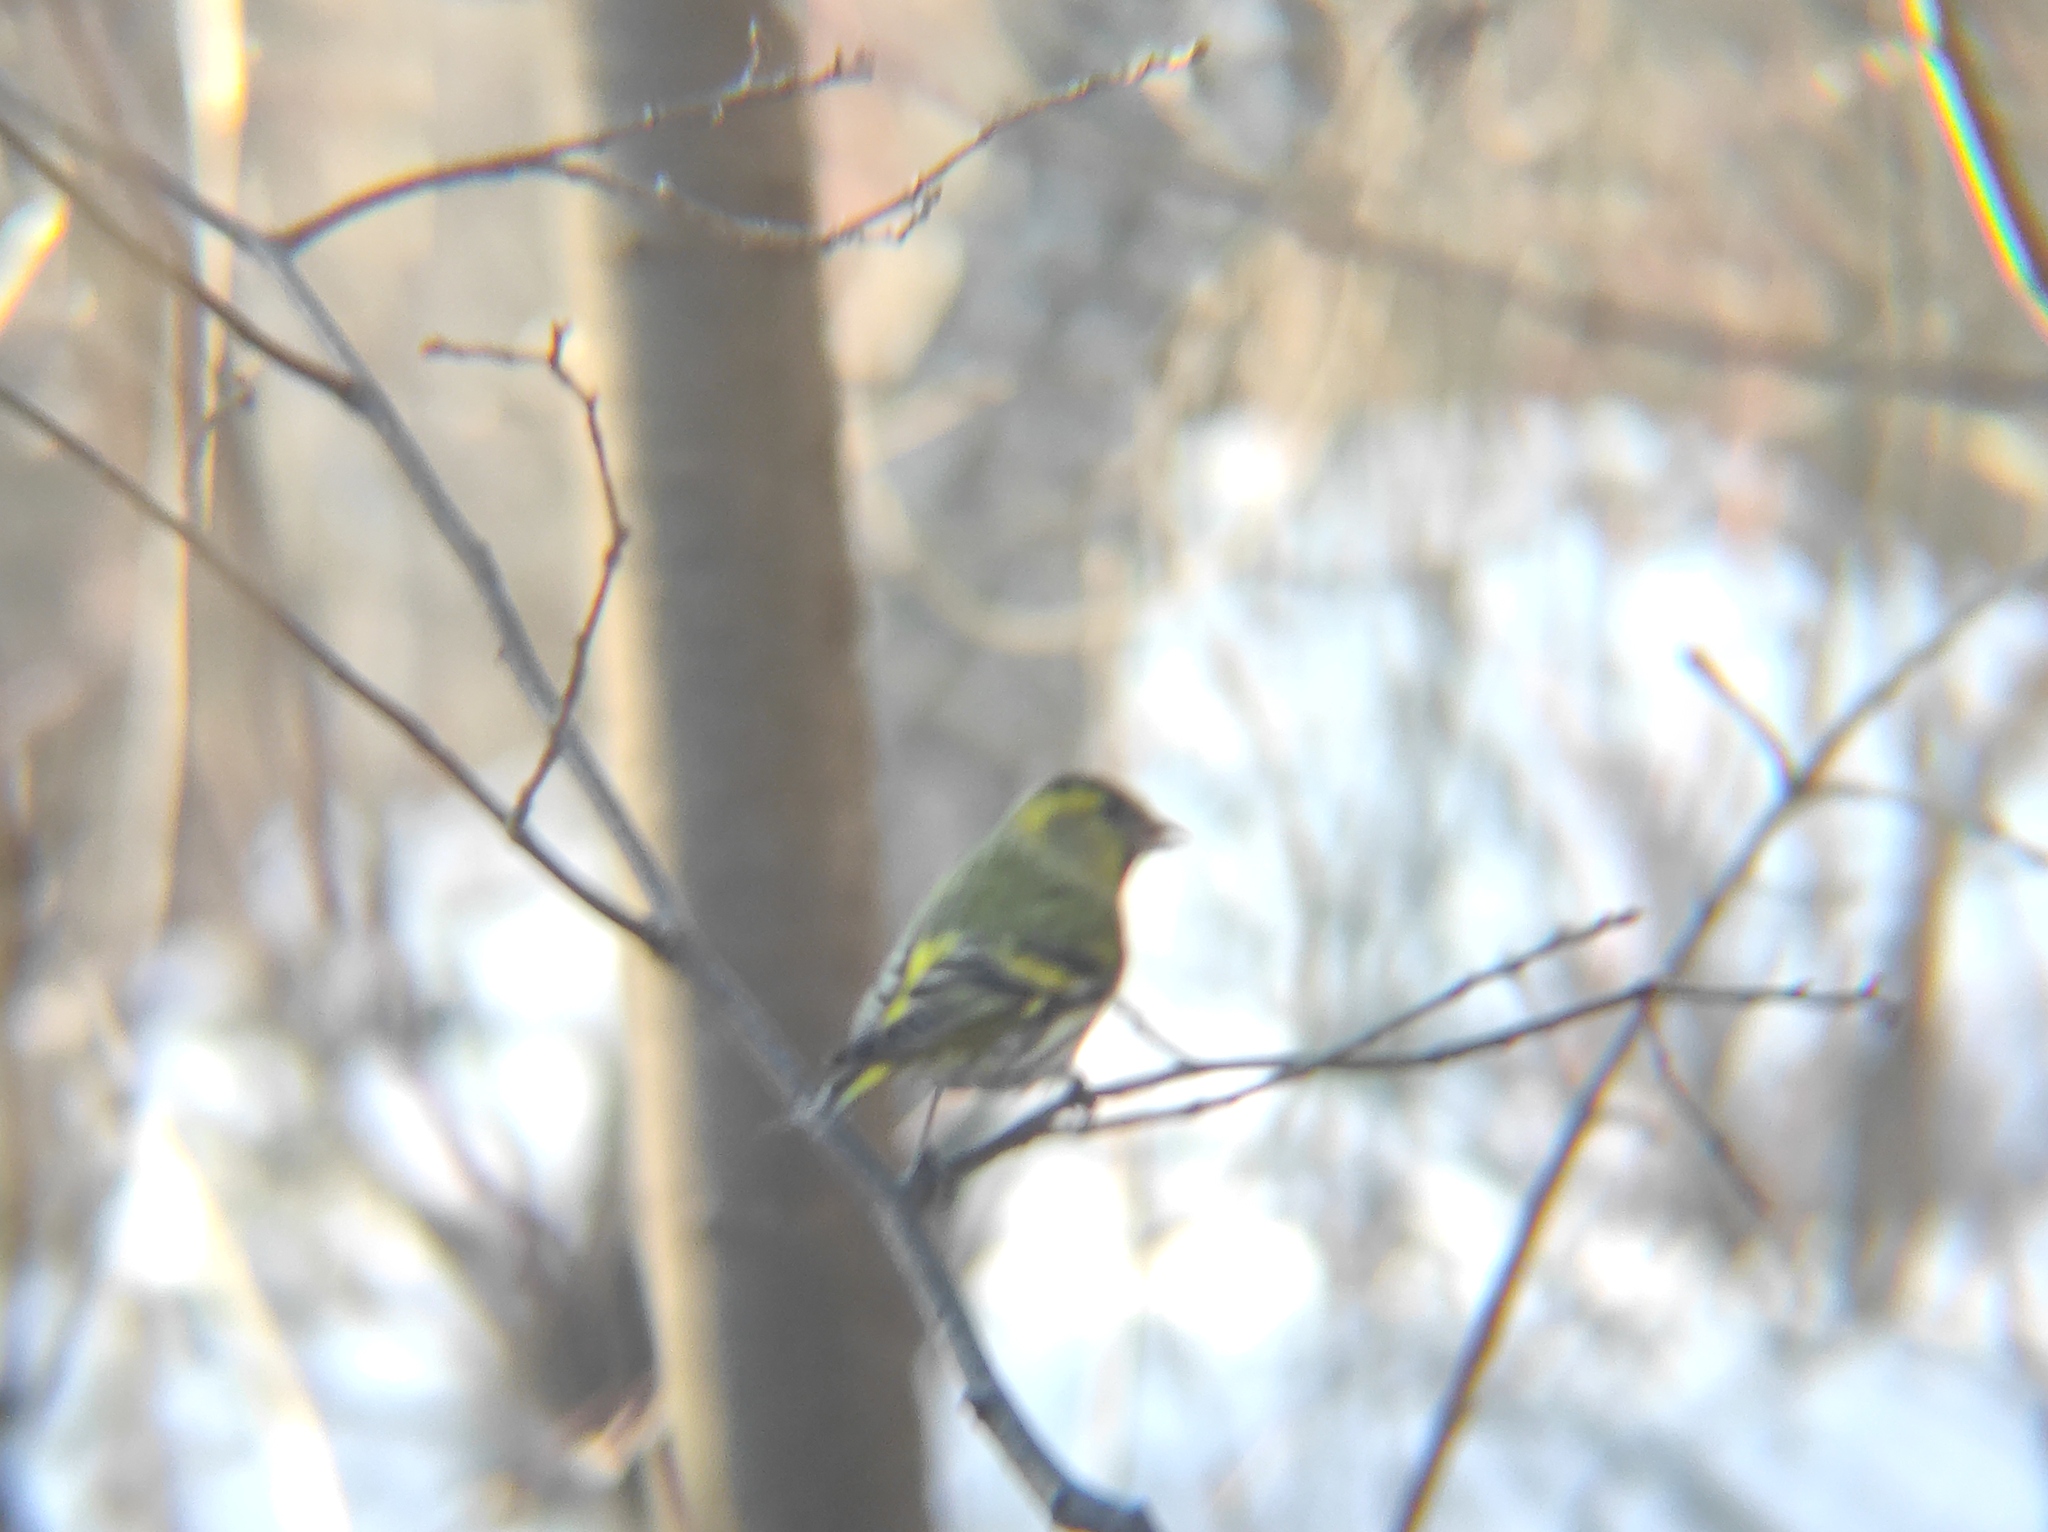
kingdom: Animalia
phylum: Chordata
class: Aves
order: Passeriformes
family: Fringillidae
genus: Spinus
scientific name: Spinus spinus
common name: Eurasian siskin
